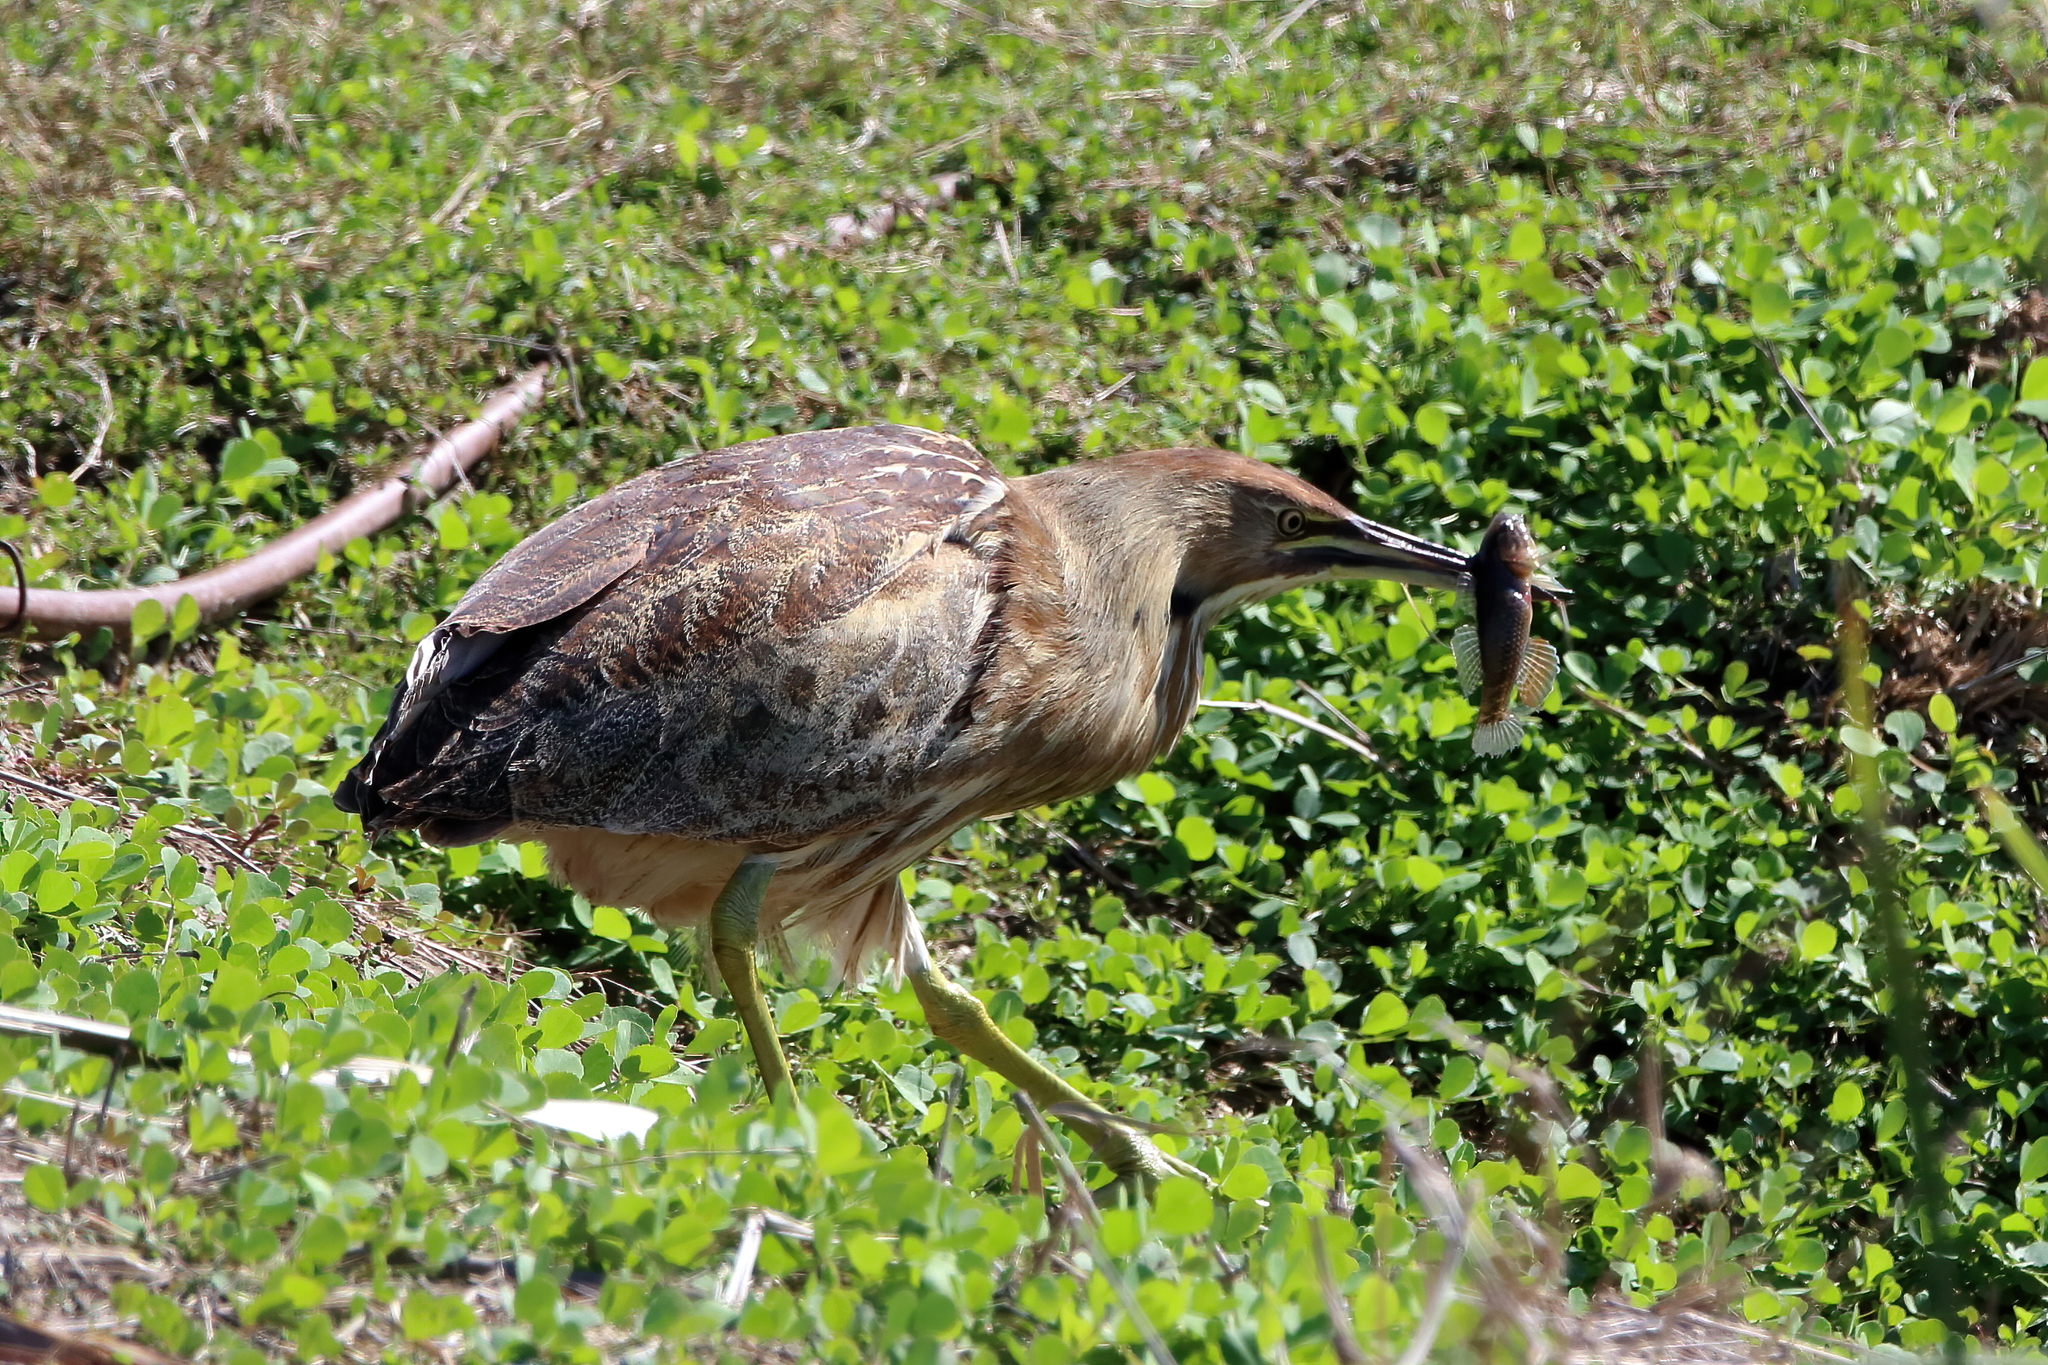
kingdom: Animalia
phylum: Chordata
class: Aves
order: Pelecaniformes
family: Ardeidae
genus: Botaurus
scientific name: Botaurus lentiginosus
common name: American bittern
